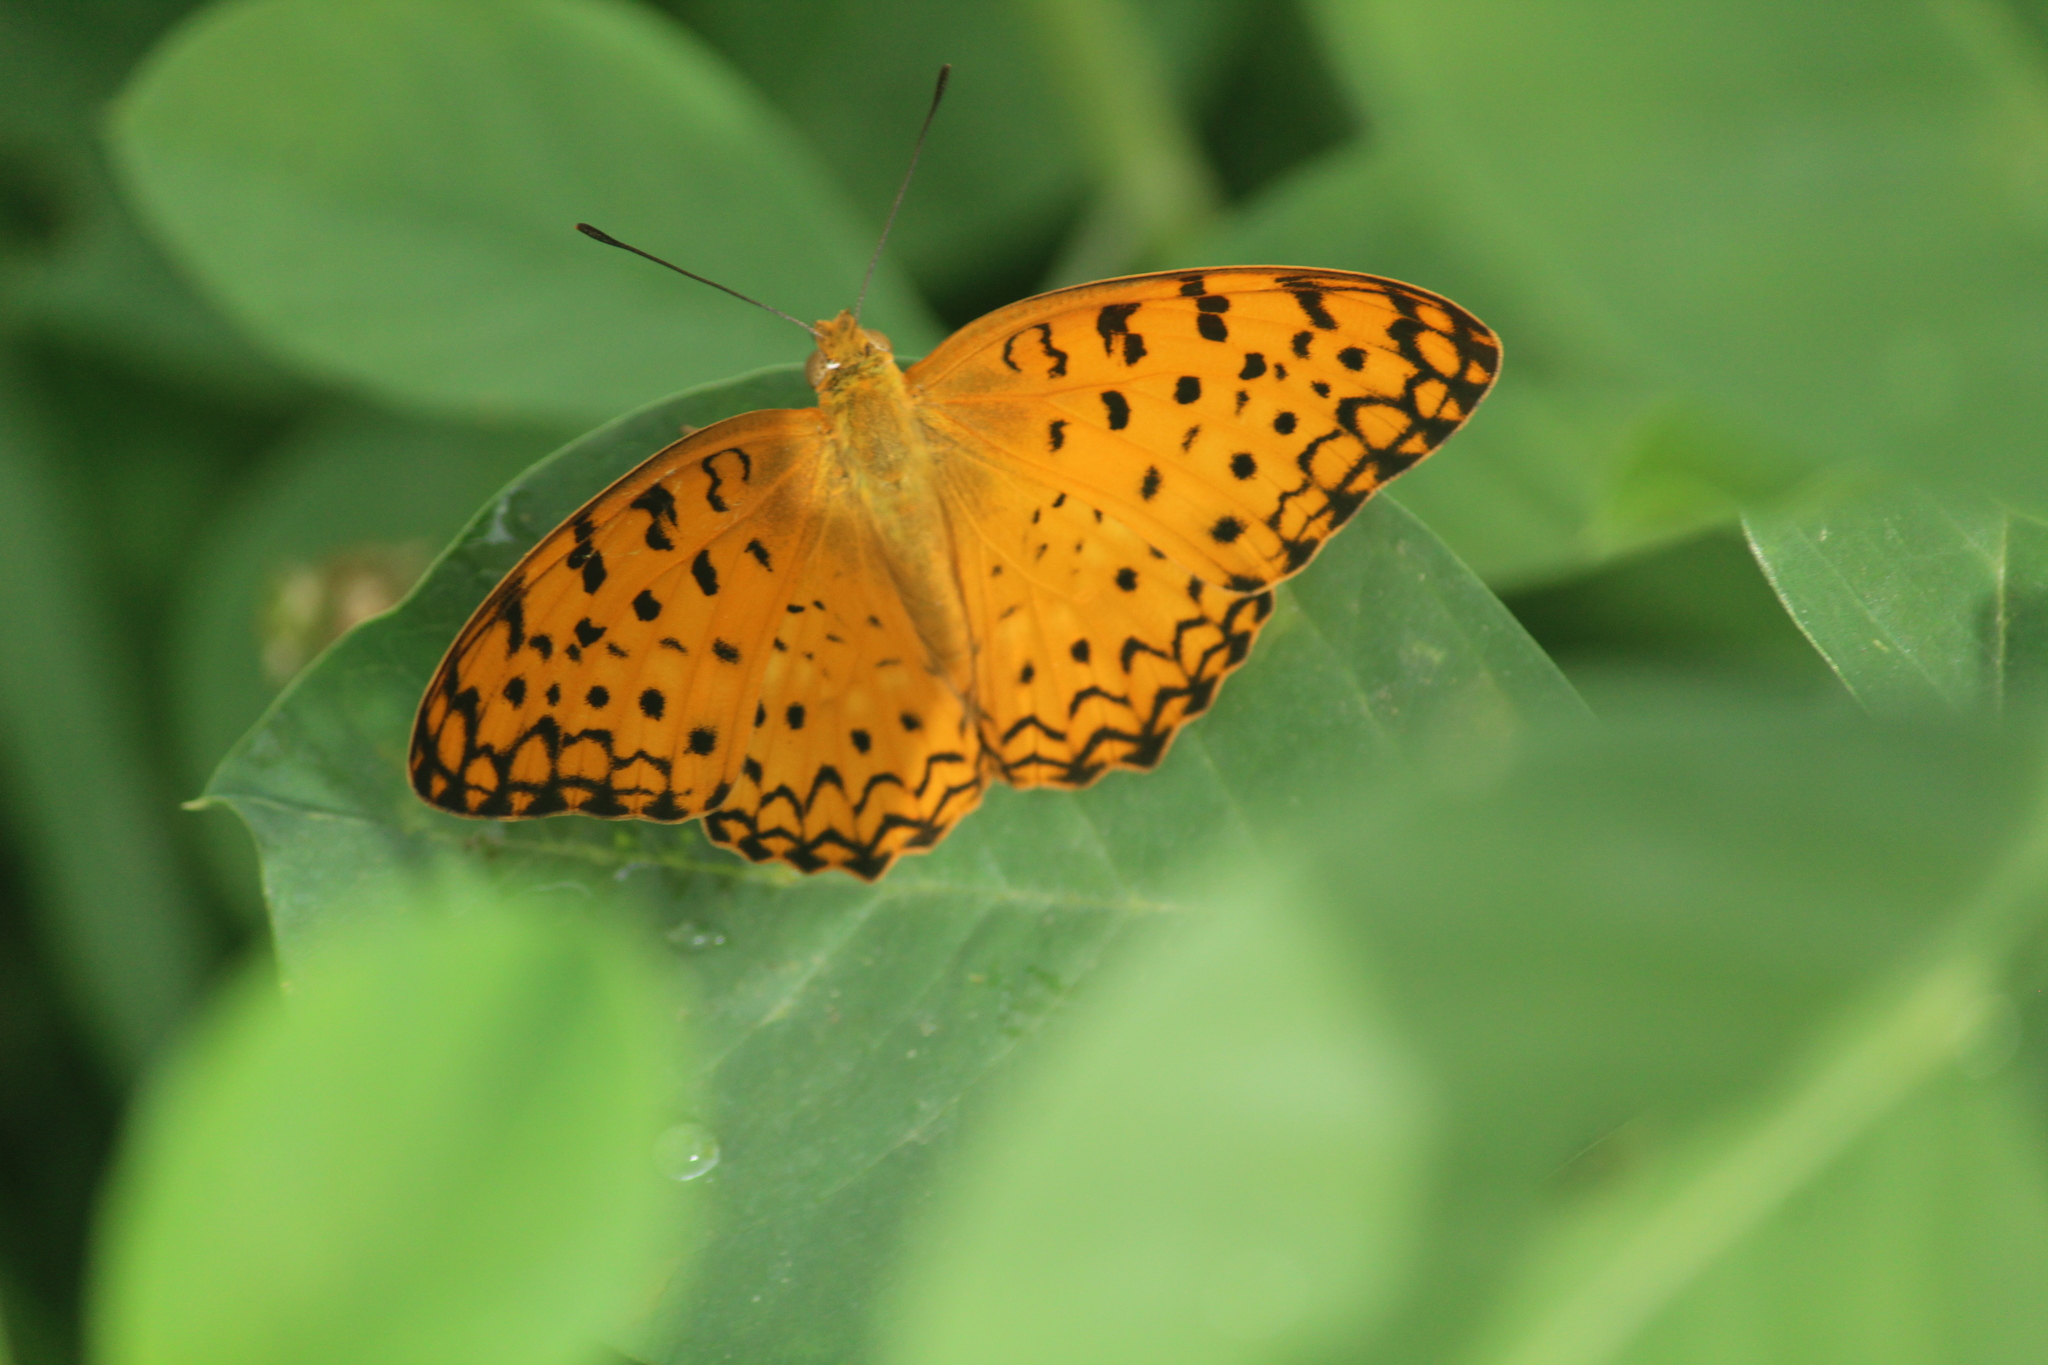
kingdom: Animalia
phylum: Arthropoda
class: Insecta
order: Lepidoptera
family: Nymphalidae
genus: Phalanta
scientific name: Phalanta phalantha
